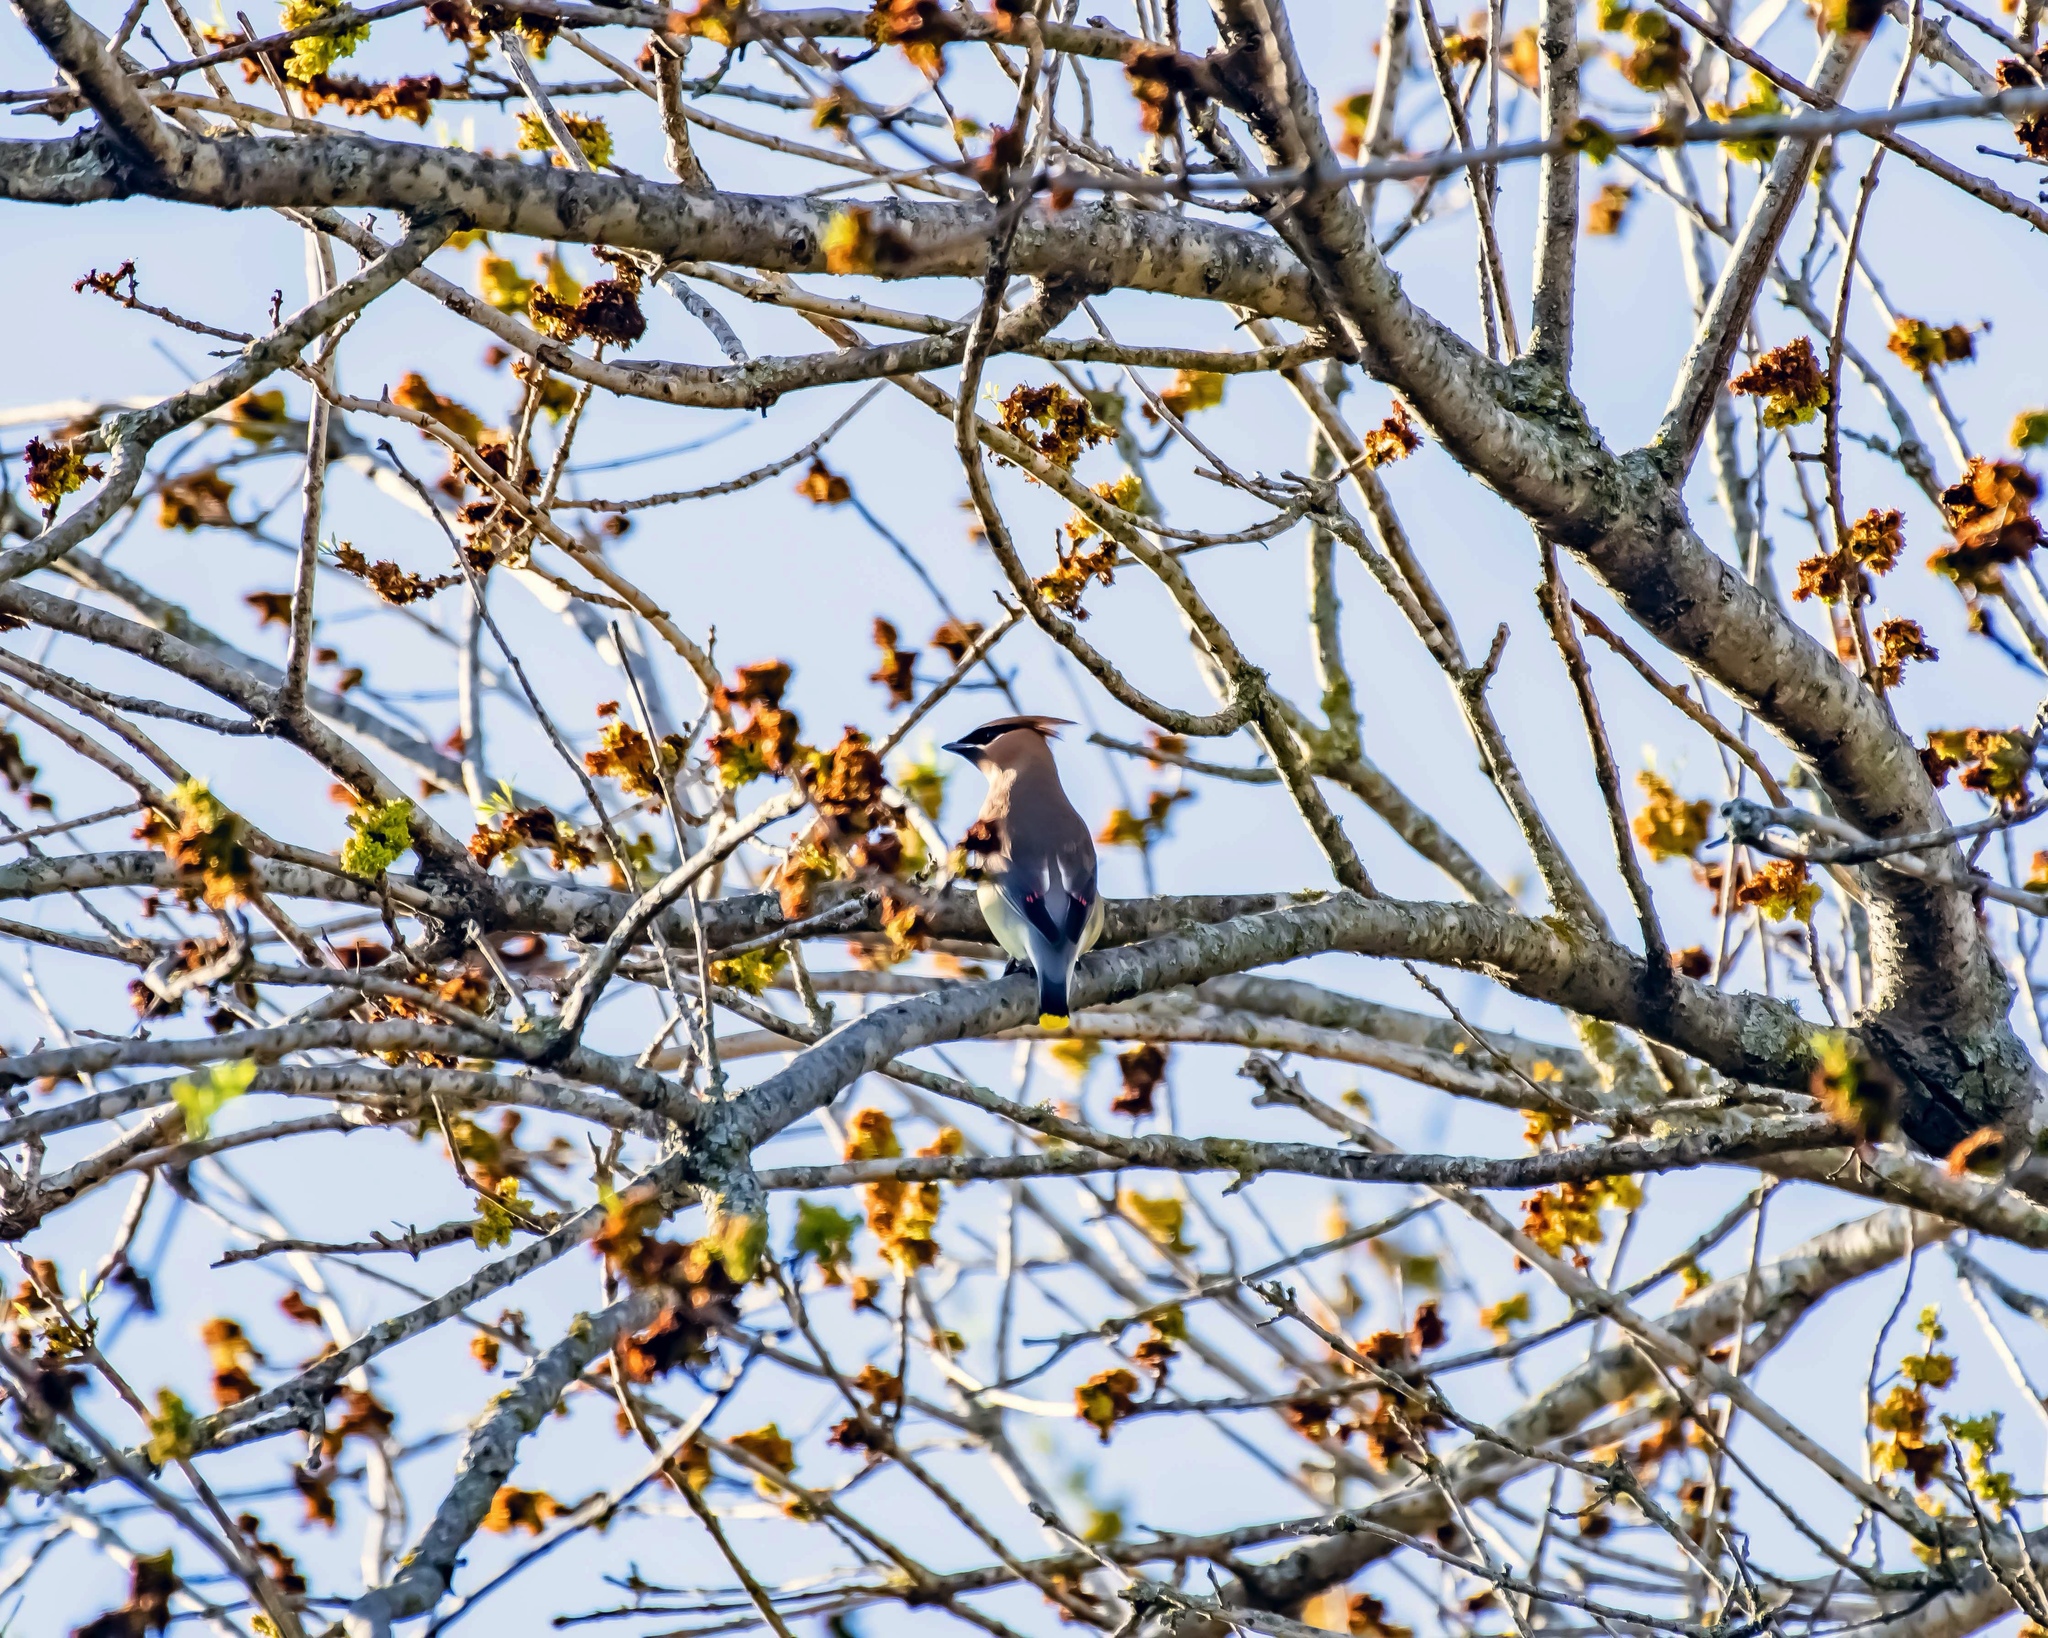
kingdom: Animalia
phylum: Chordata
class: Aves
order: Passeriformes
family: Bombycillidae
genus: Bombycilla
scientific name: Bombycilla cedrorum
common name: Cedar waxwing
